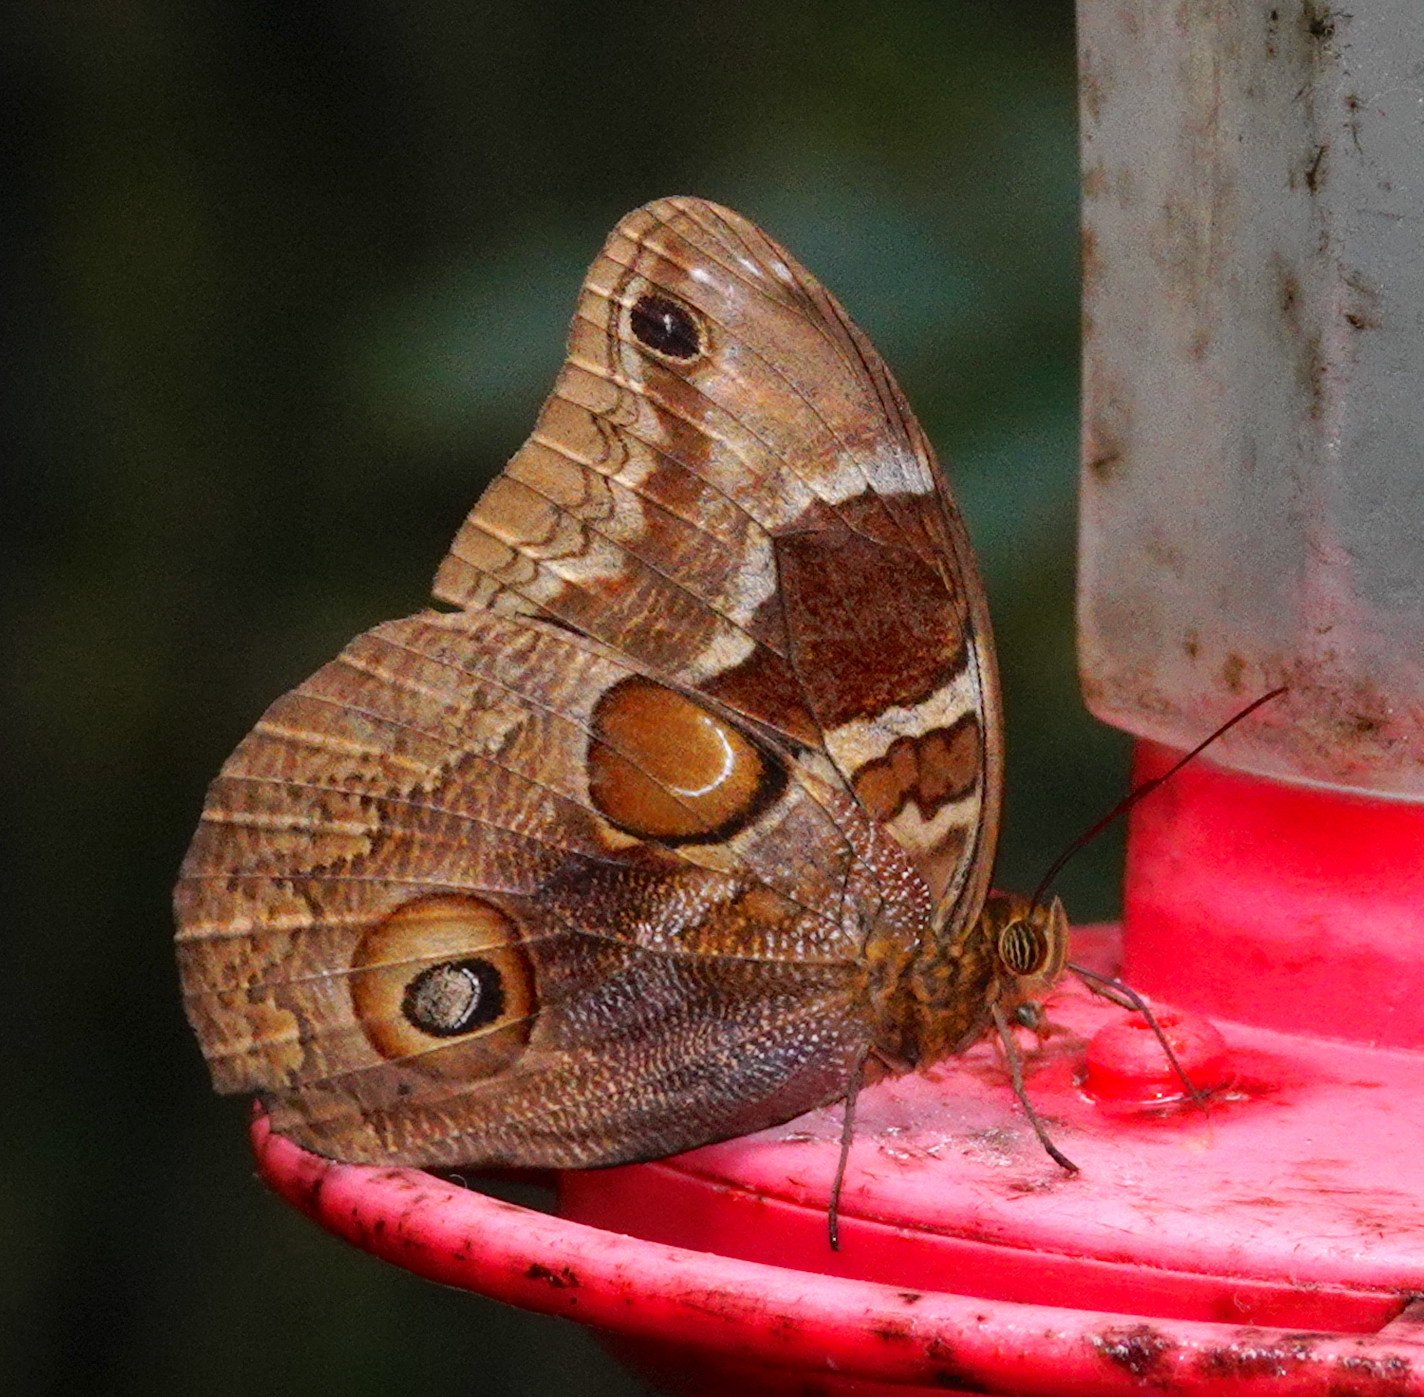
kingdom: Animalia
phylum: Arthropoda
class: Insecta
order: Lepidoptera
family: Nymphalidae
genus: Catoblepia
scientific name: Catoblepia orgetorix
